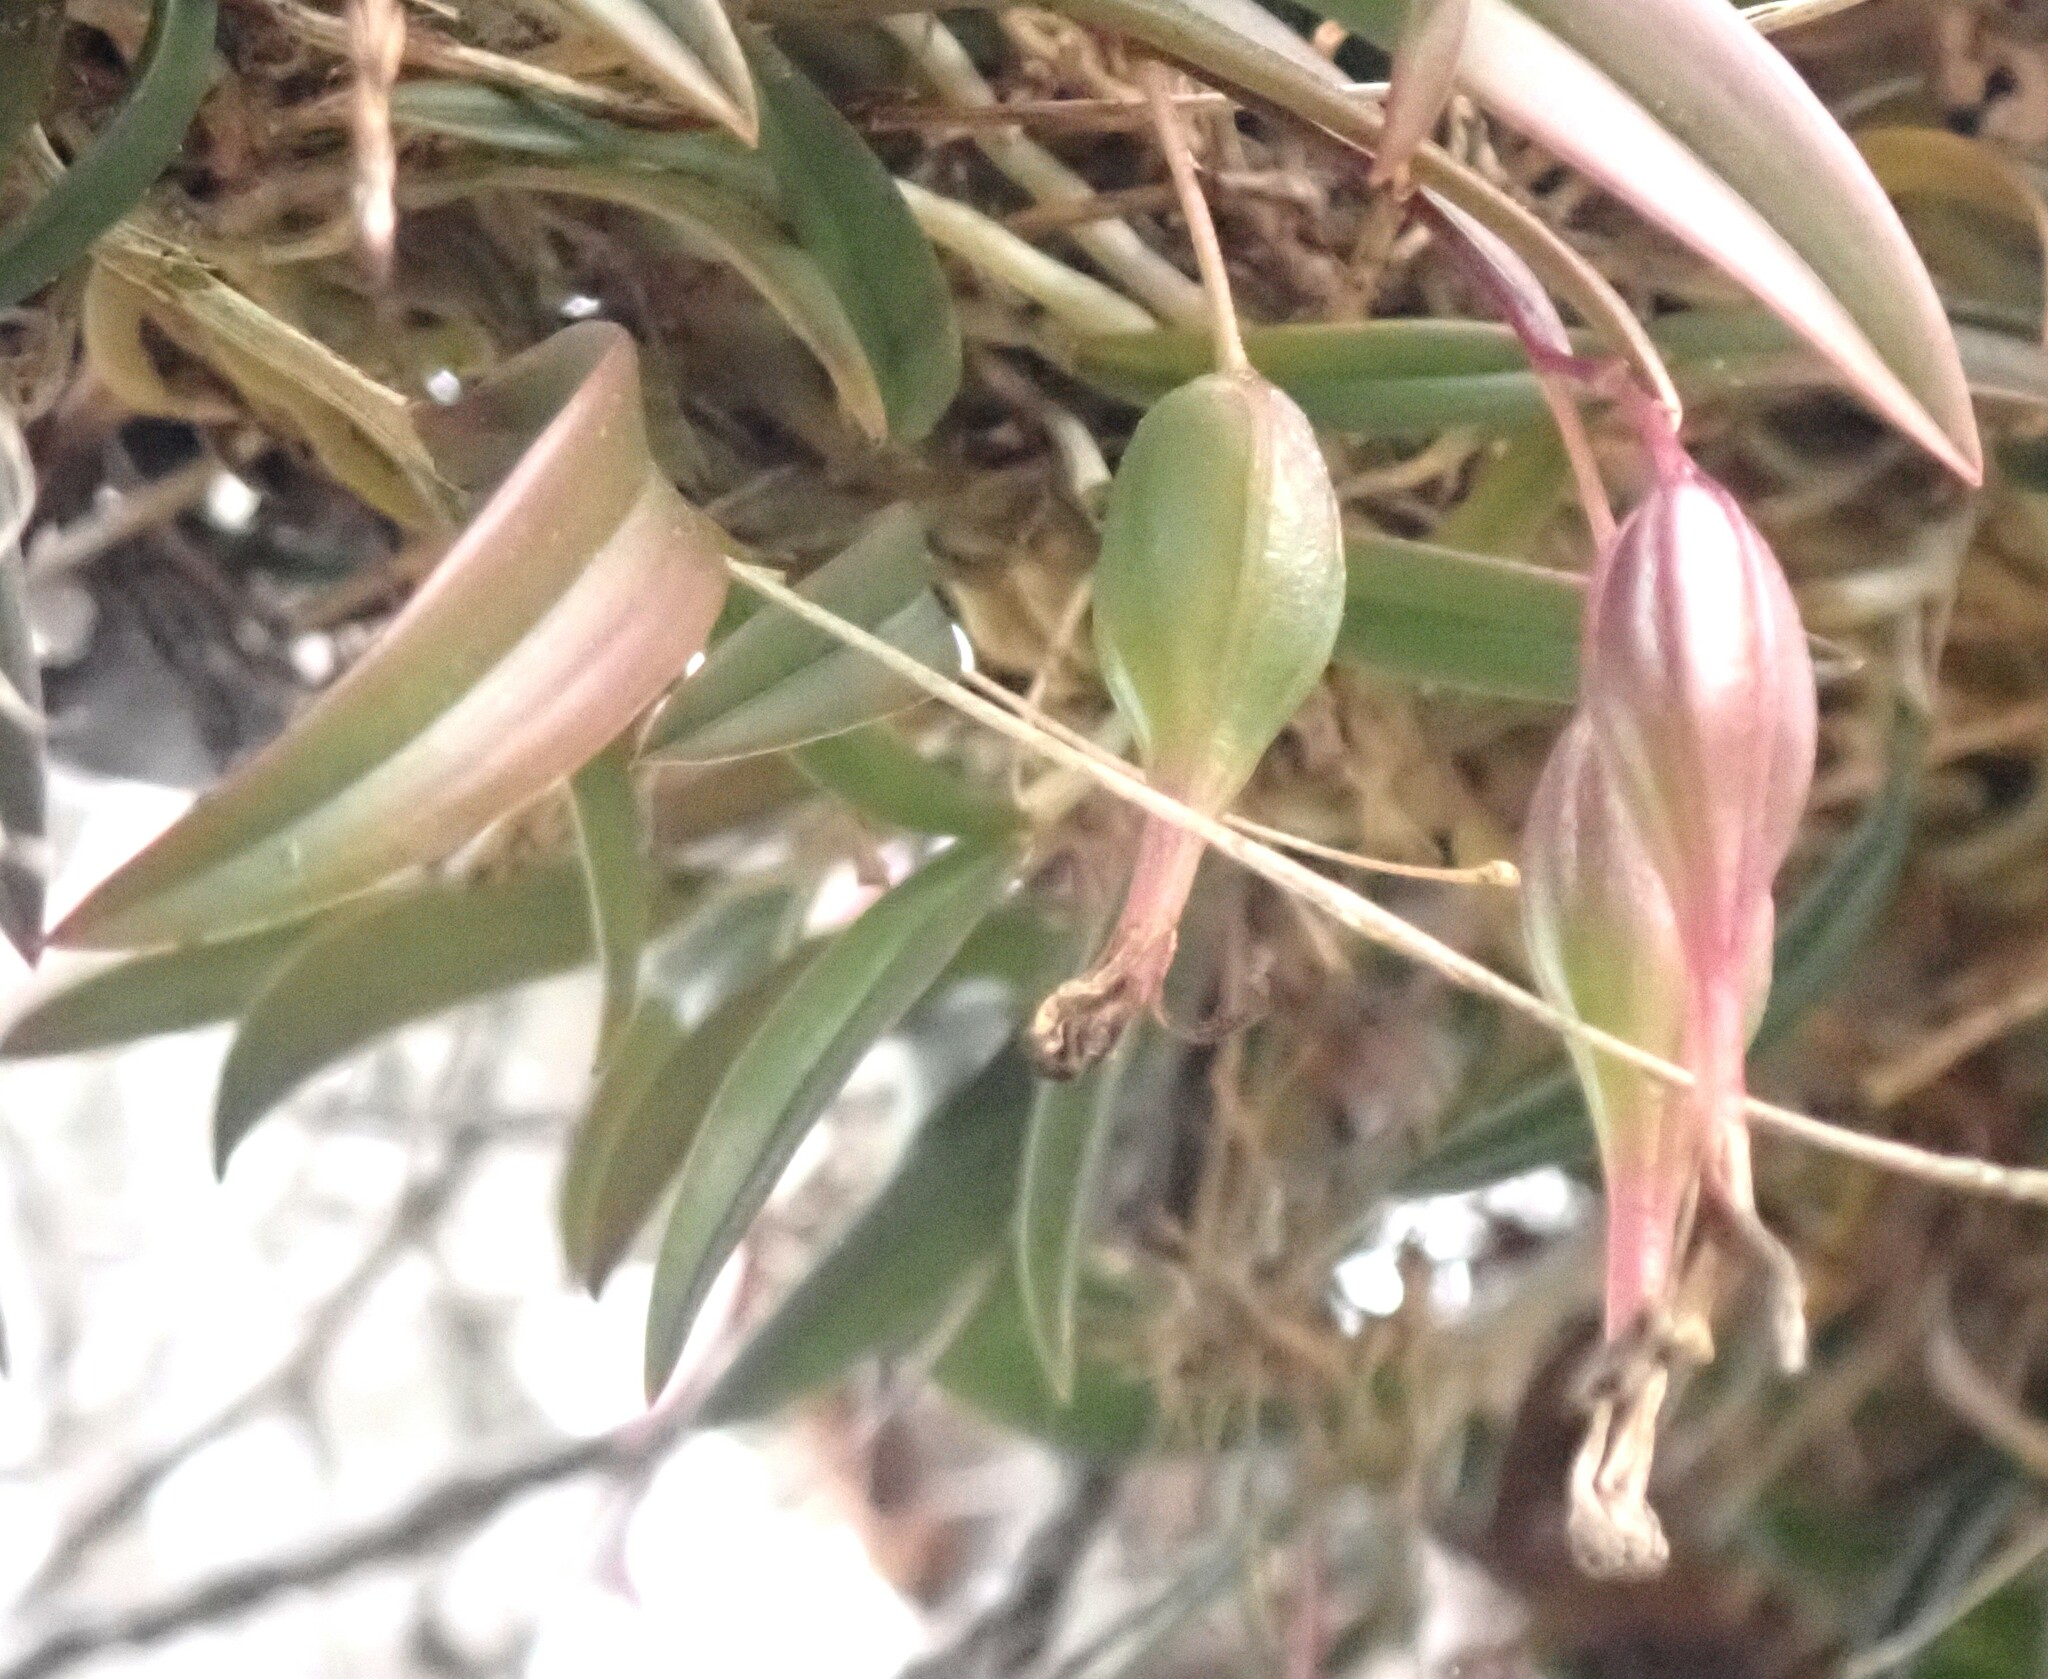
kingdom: Plantae
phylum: Tracheophyta
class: Liliopsida
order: Asparagales
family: Orchidaceae
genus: Epidendrum
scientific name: Epidendrum conopseum
